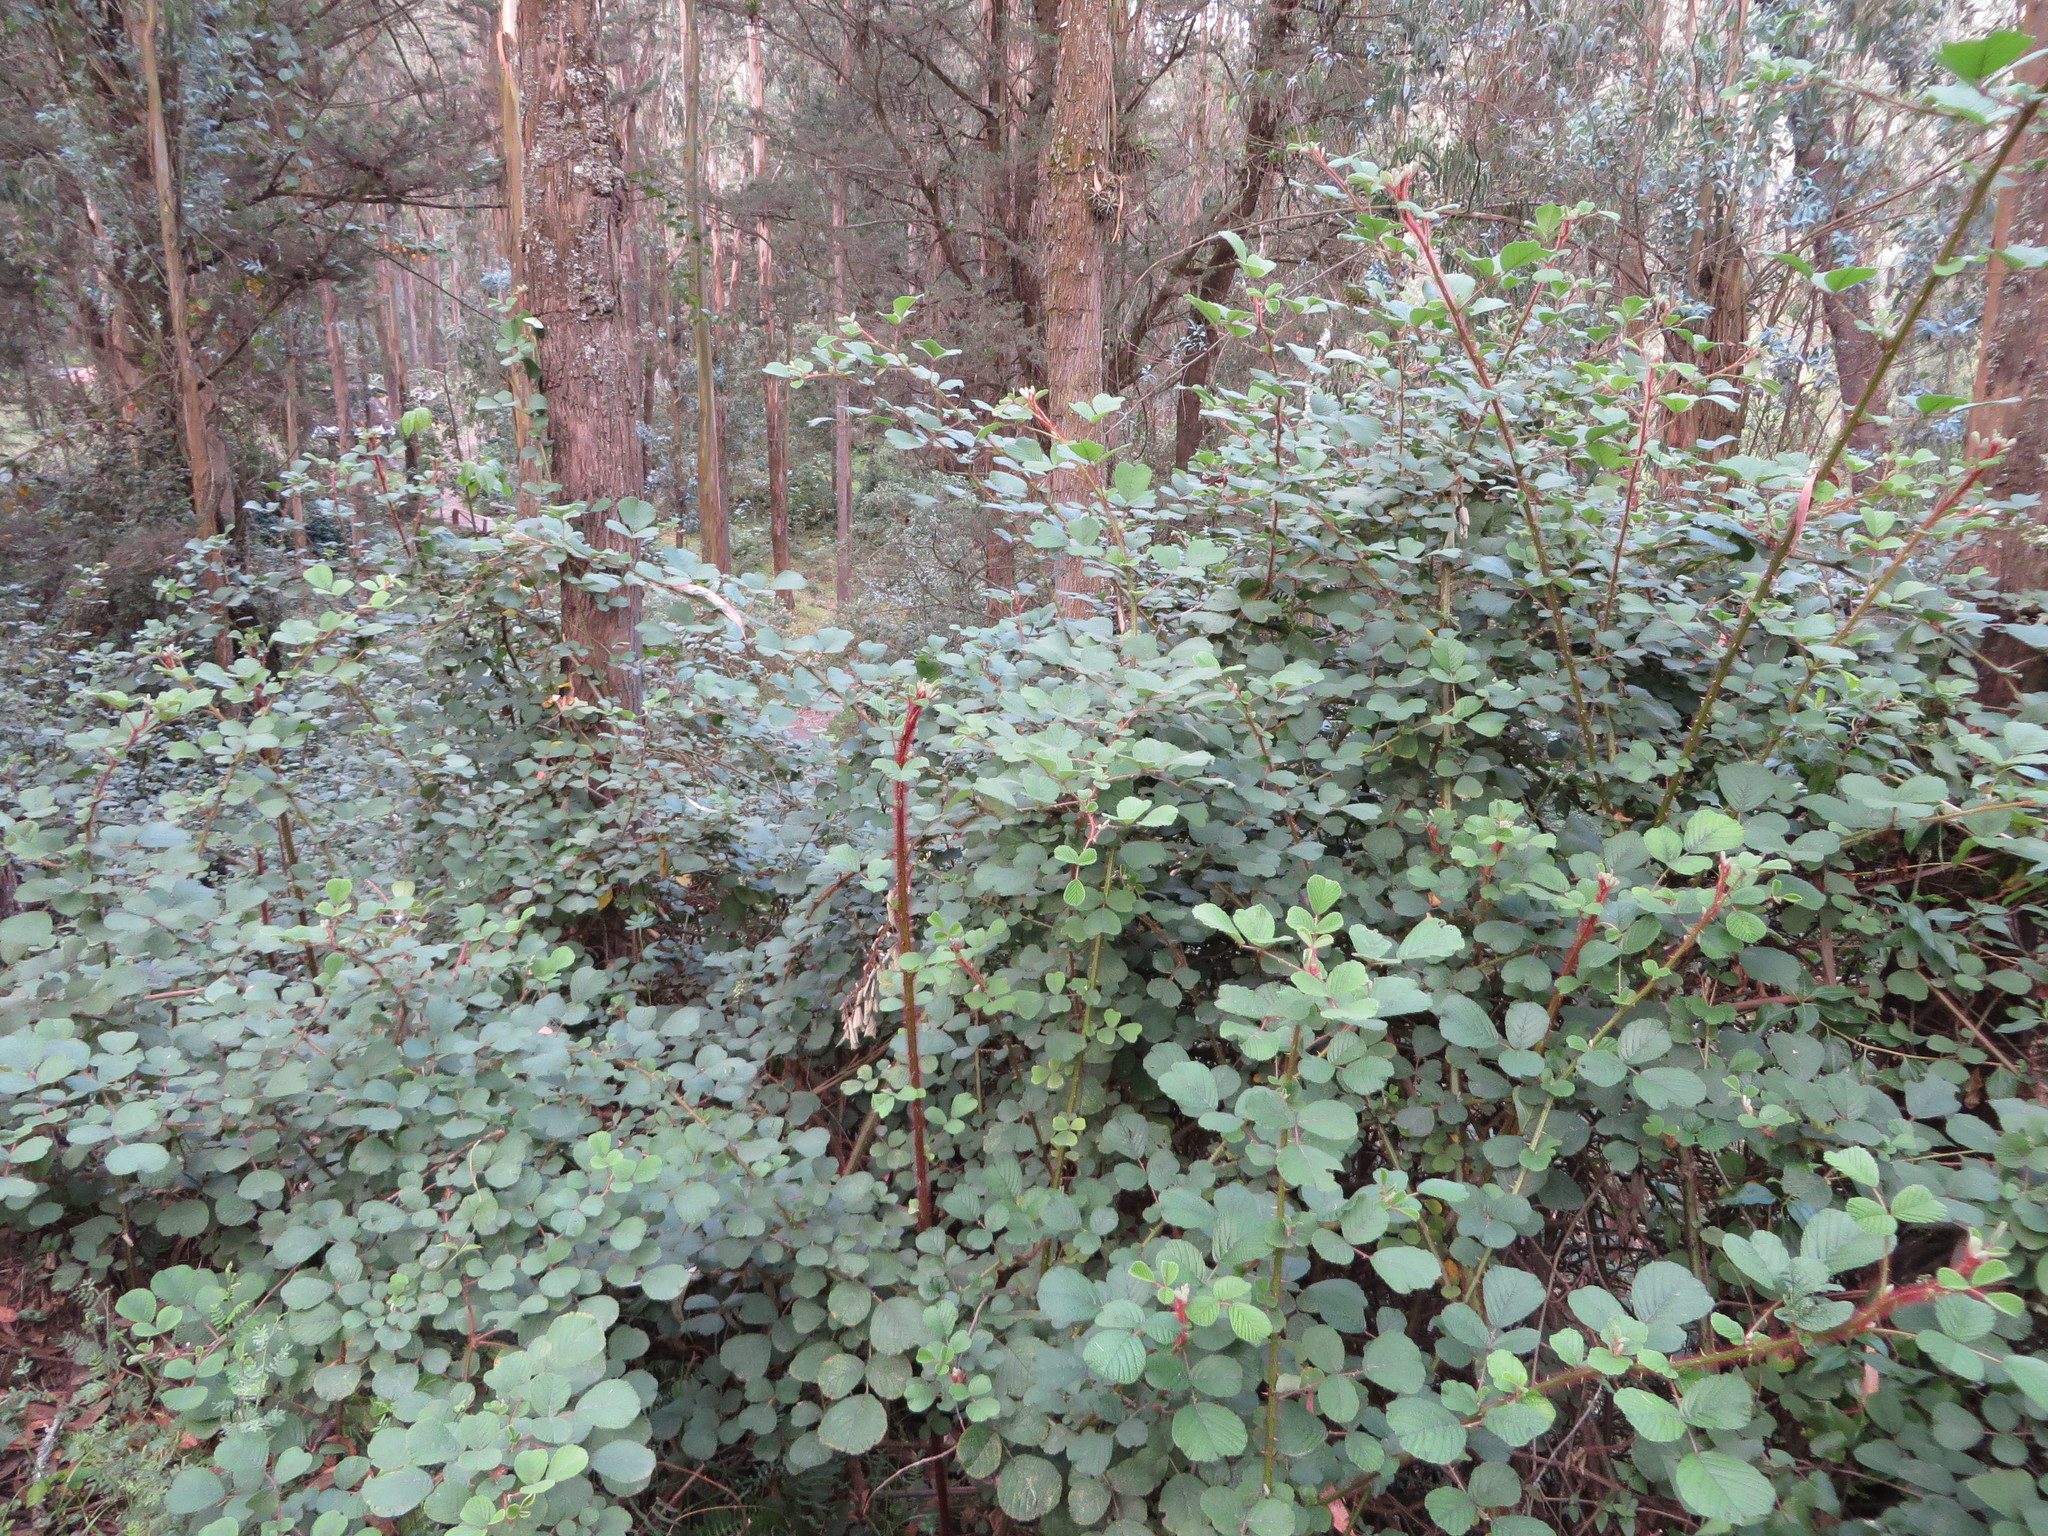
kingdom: Plantae
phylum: Tracheophyta
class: Magnoliopsida
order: Rosales
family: Rosaceae
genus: Rubus
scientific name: Rubus ellipticus
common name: Cheeseberry
